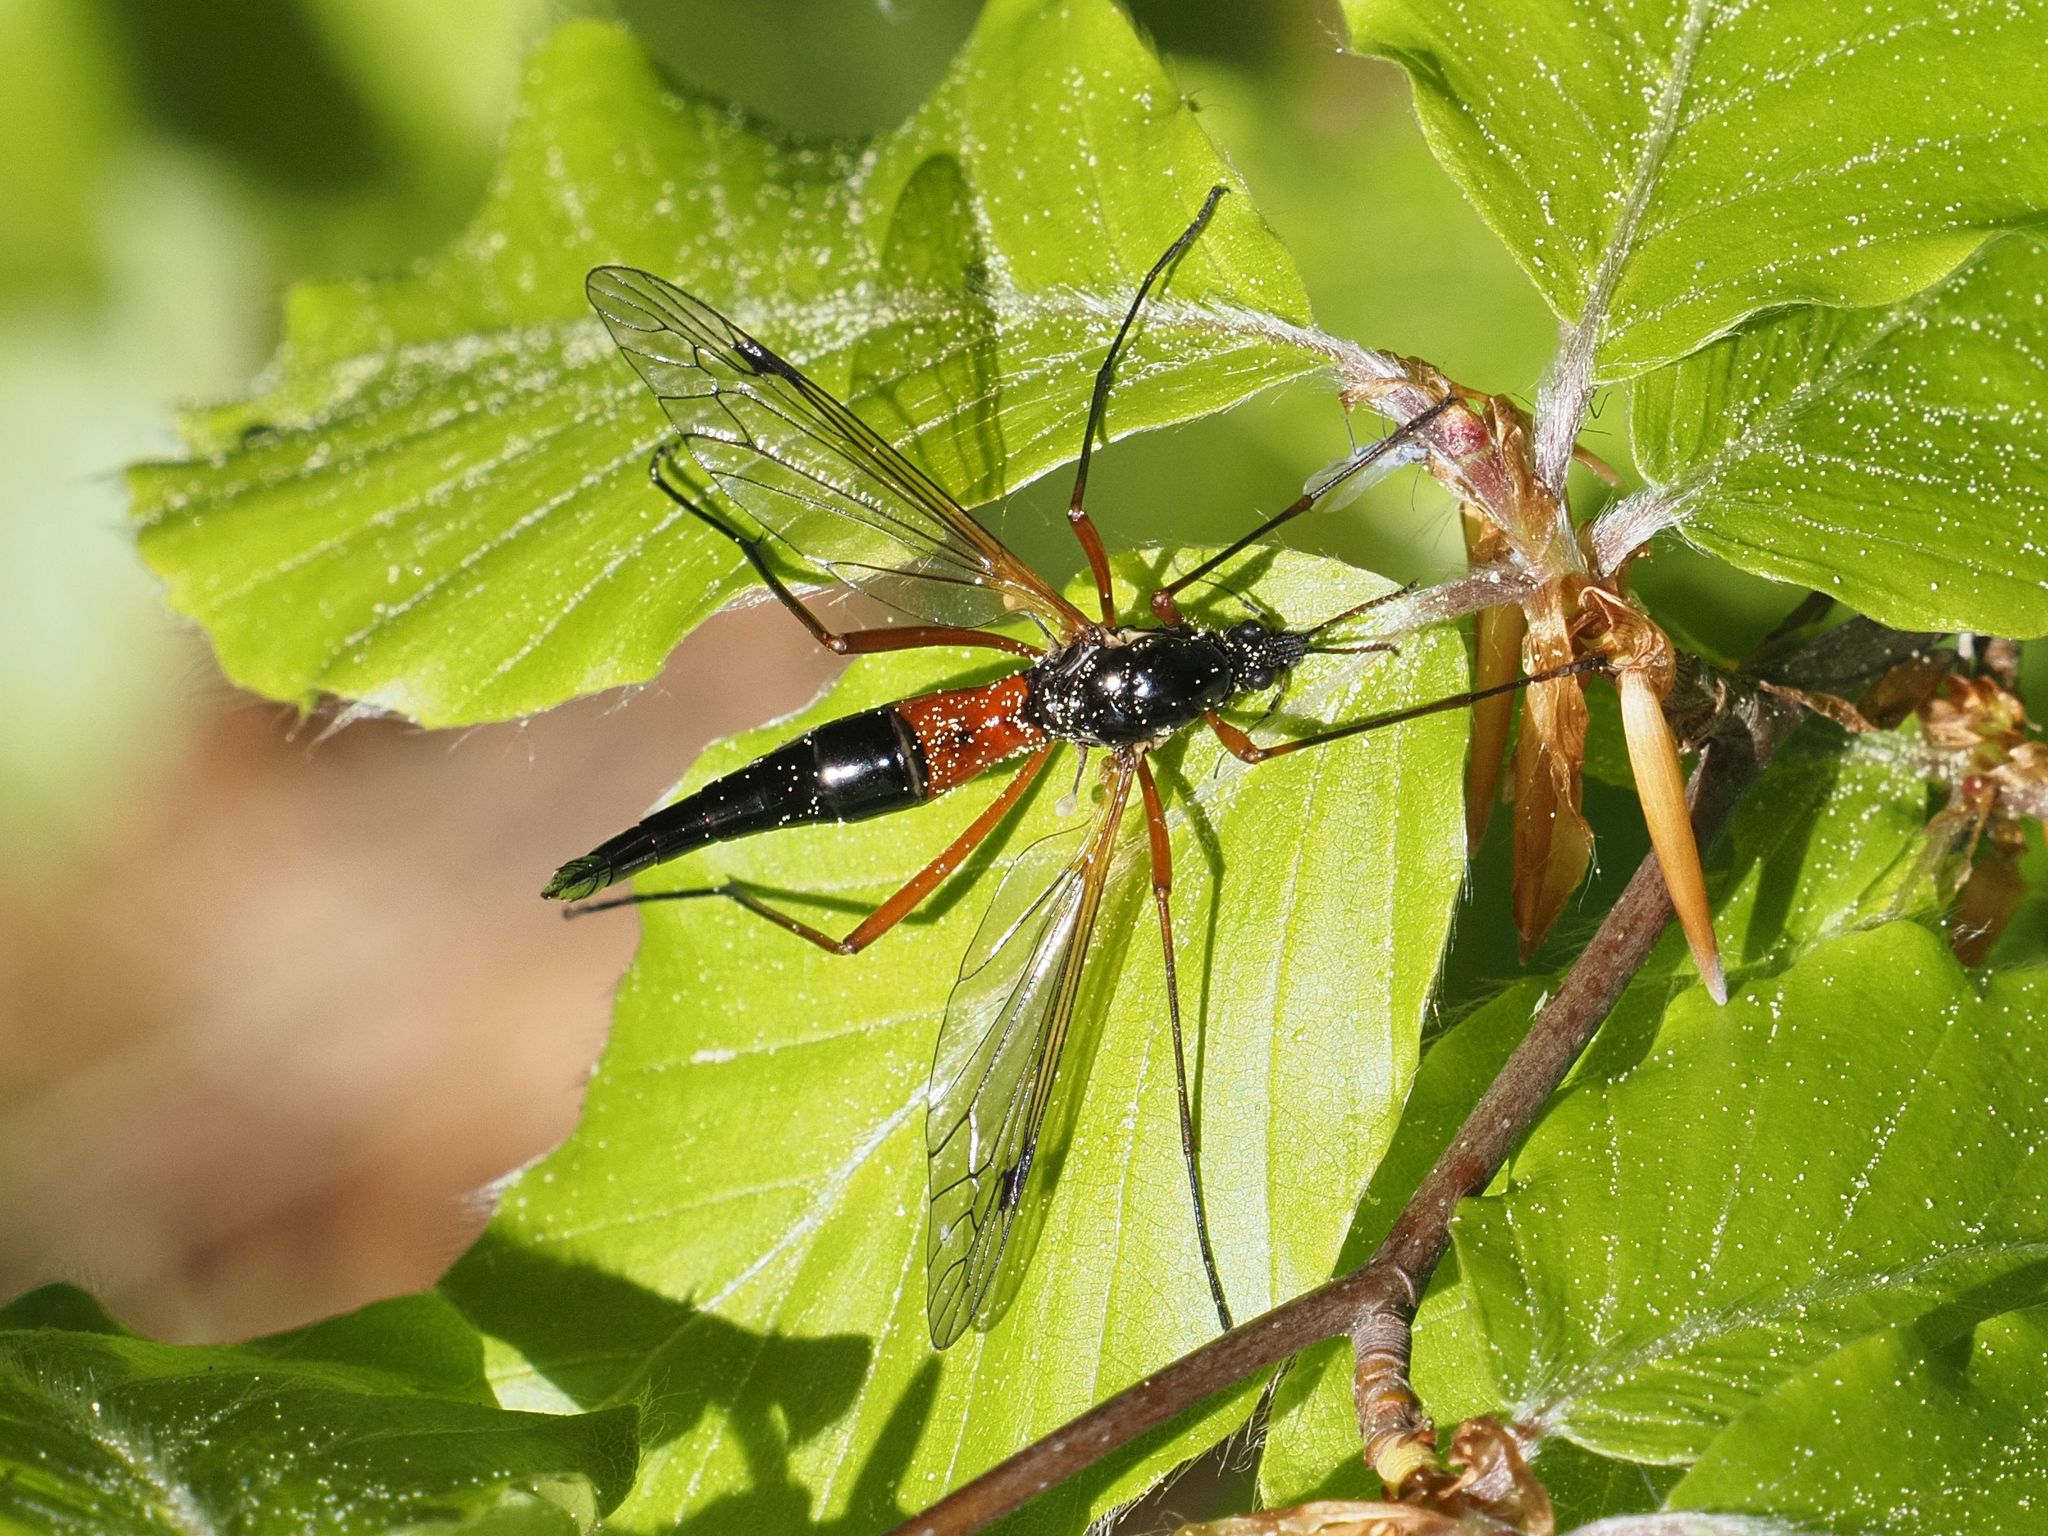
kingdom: Animalia
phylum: Arthropoda
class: Insecta
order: Diptera
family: Tipulidae
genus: Tanyptera
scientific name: Tanyptera atrata
